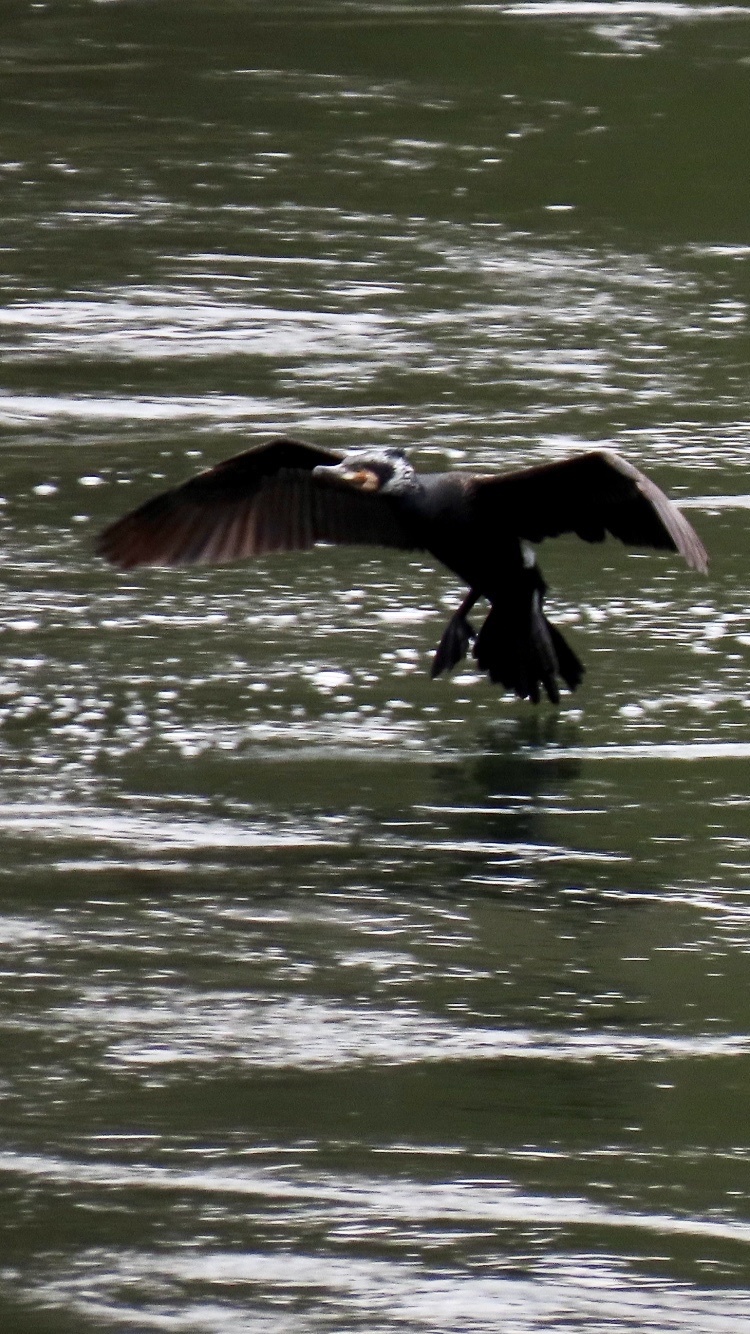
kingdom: Animalia
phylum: Chordata
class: Aves
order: Suliformes
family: Phalacrocoracidae
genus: Phalacrocorax
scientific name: Phalacrocorax carbo
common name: Great cormorant
